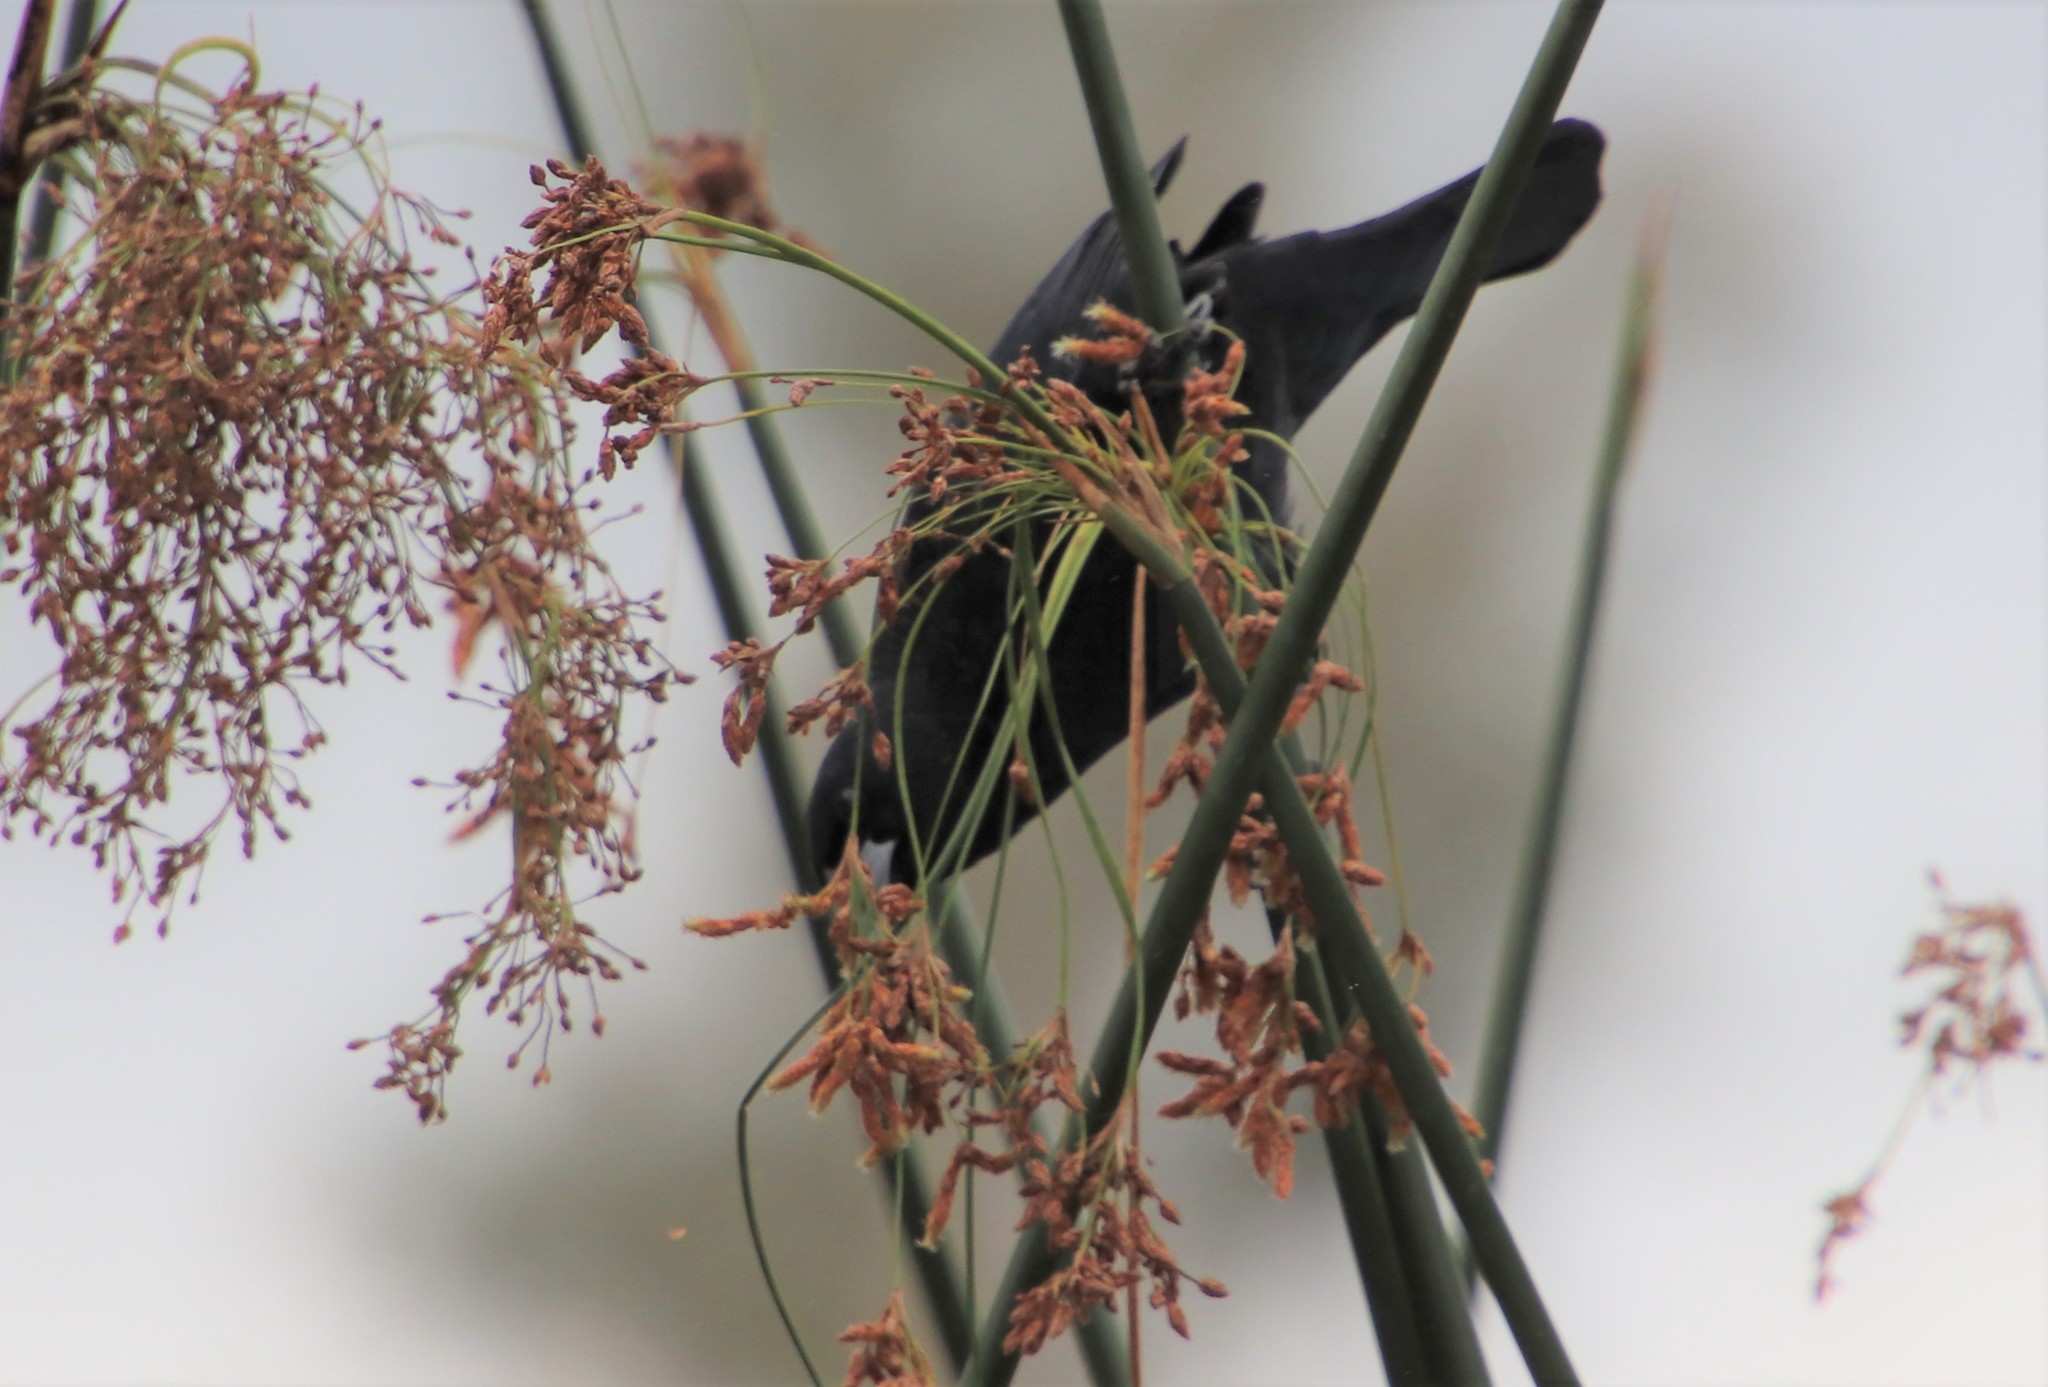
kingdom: Animalia
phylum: Chordata
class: Aves
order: Passeriformes
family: Icteridae
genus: Agelaius
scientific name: Agelaius phoeniceus
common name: Red-winged blackbird
